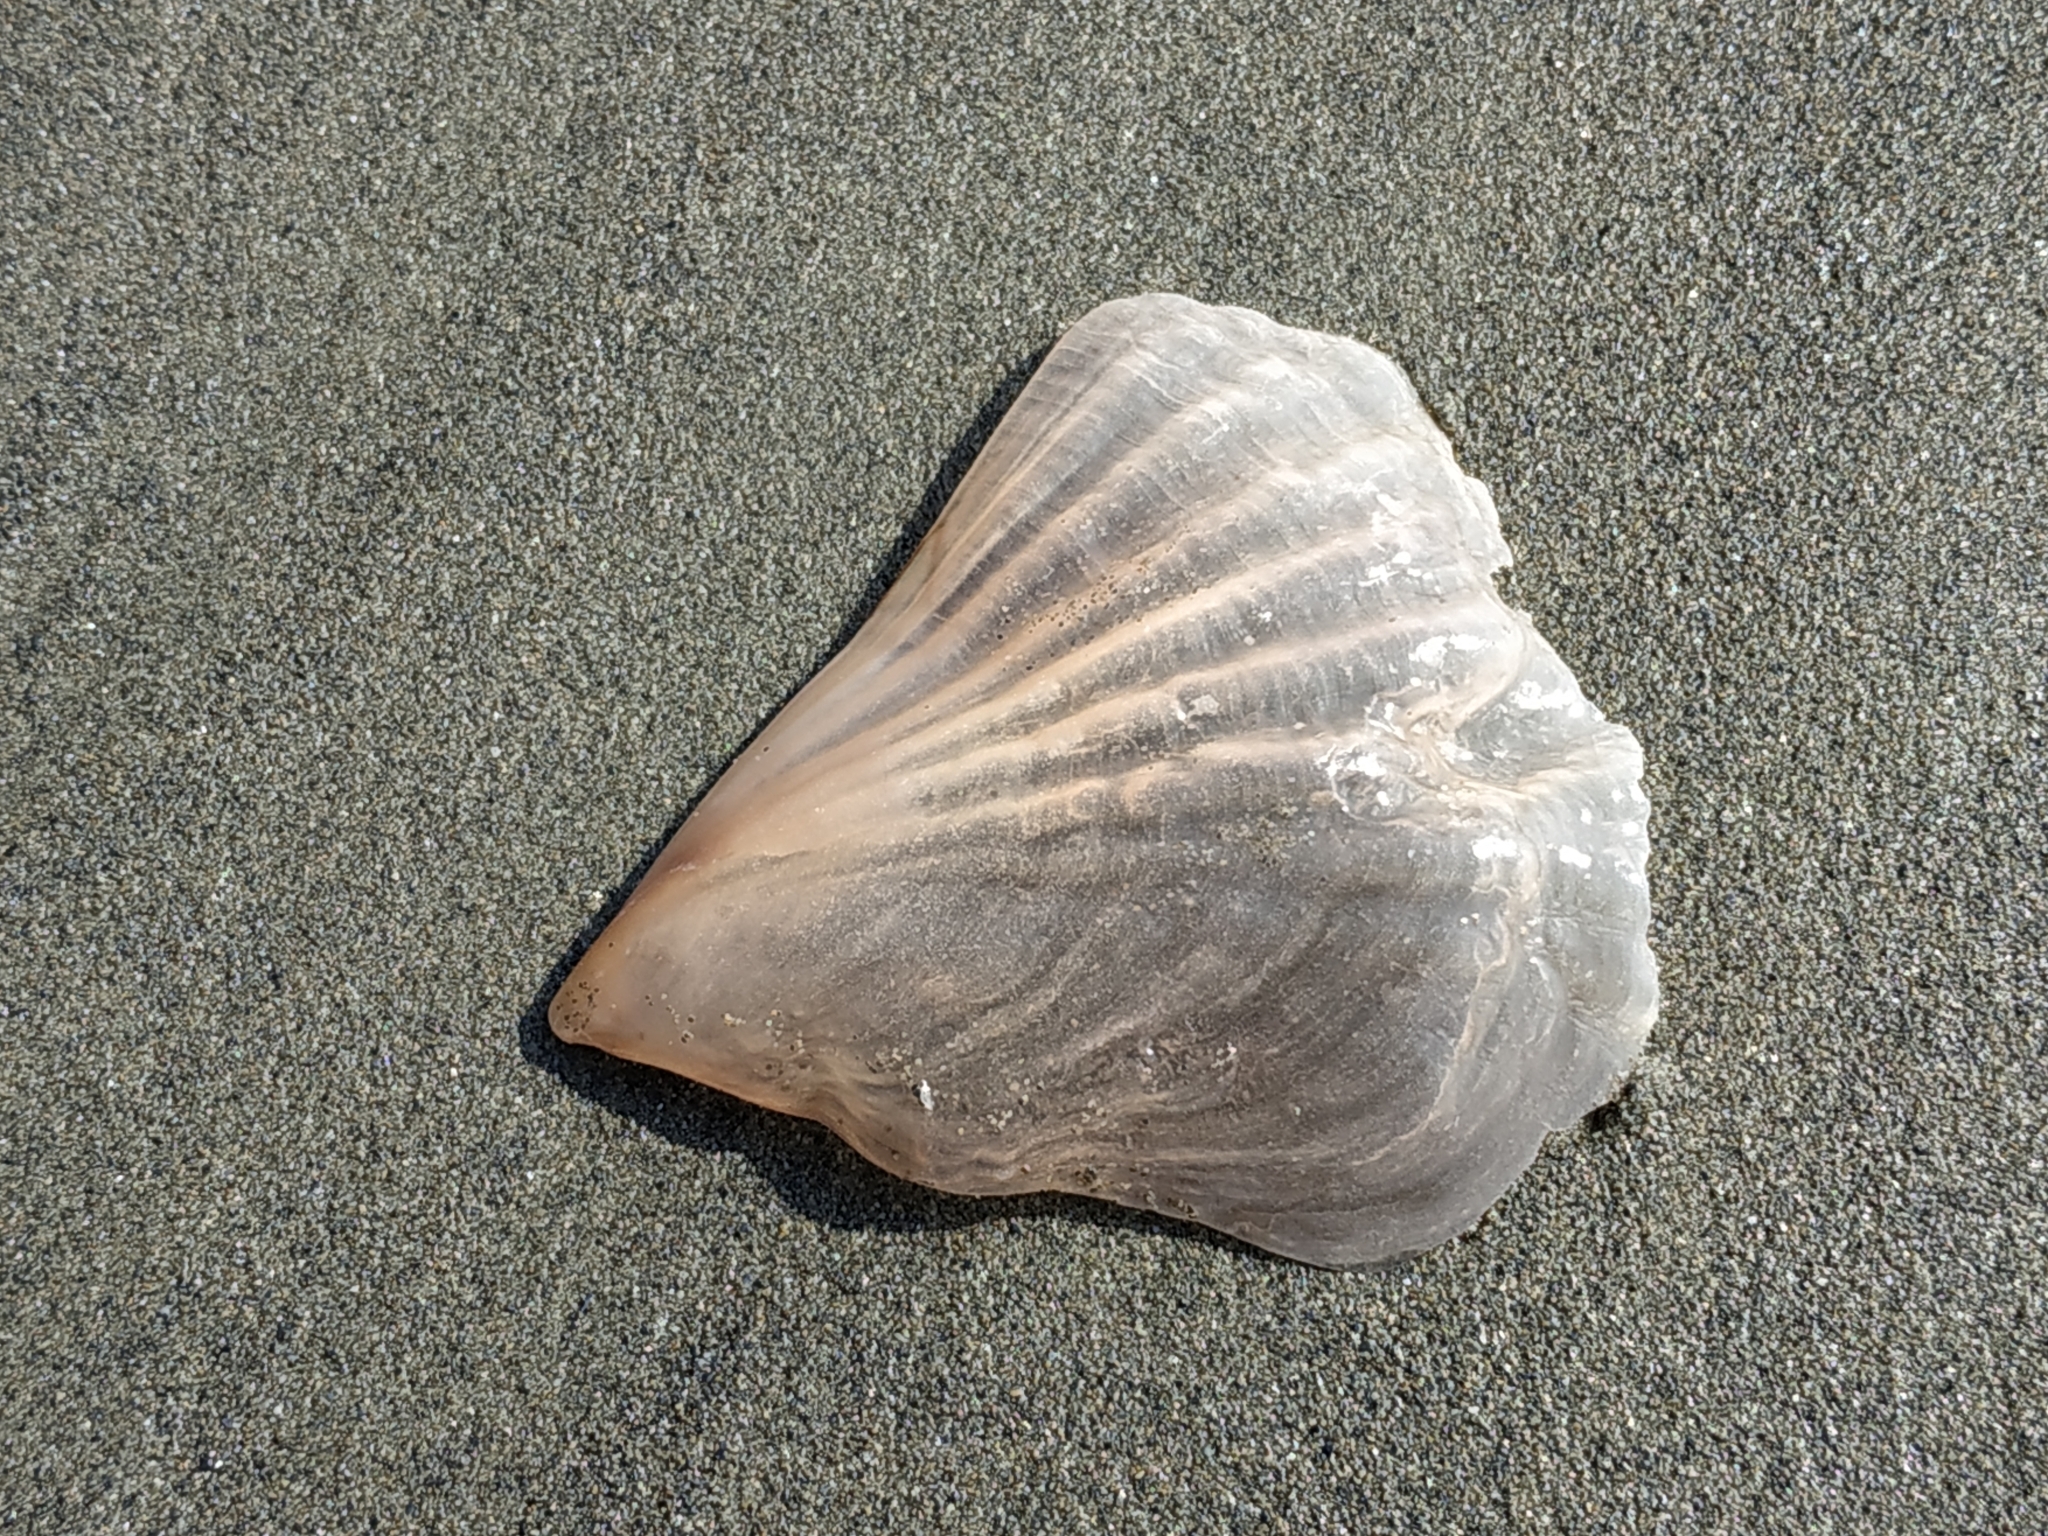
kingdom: Animalia
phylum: Mollusca
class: Bivalvia
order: Ostreida
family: Pinnidae
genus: Streptopinna
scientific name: Streptopinna saccata
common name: Baggy pen shell
